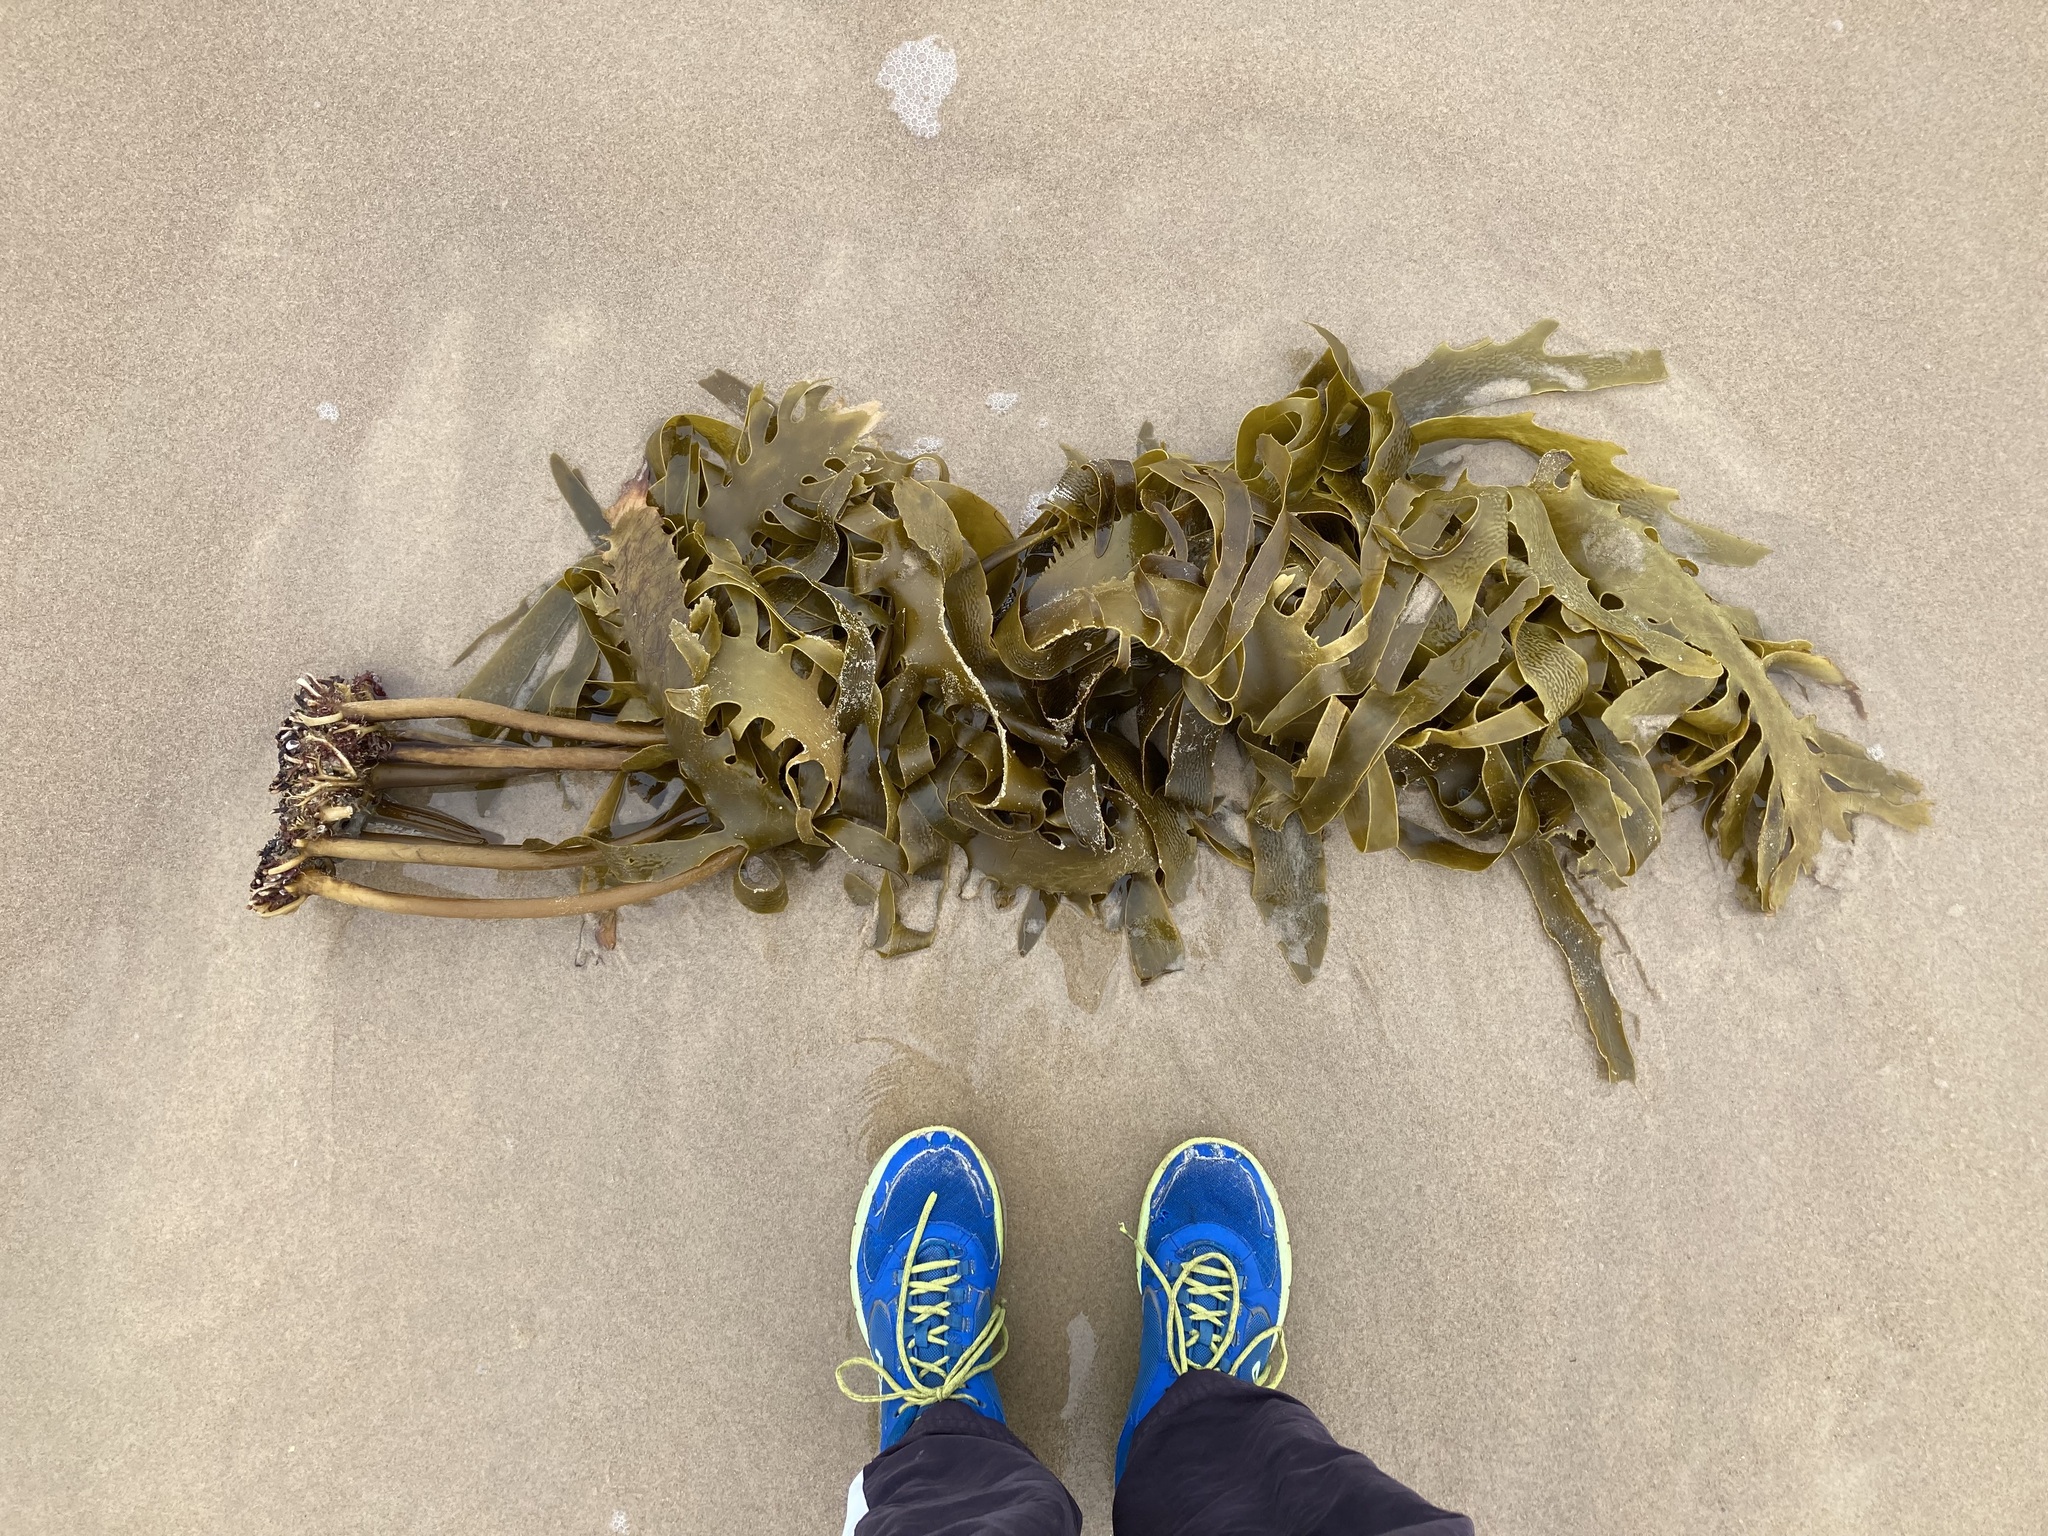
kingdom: Chromista
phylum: Ochrophyta
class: Phaeophyceae
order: Laminariales
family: Lessoniaceae
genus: Ecklonia
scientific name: Ecklonia radiata
